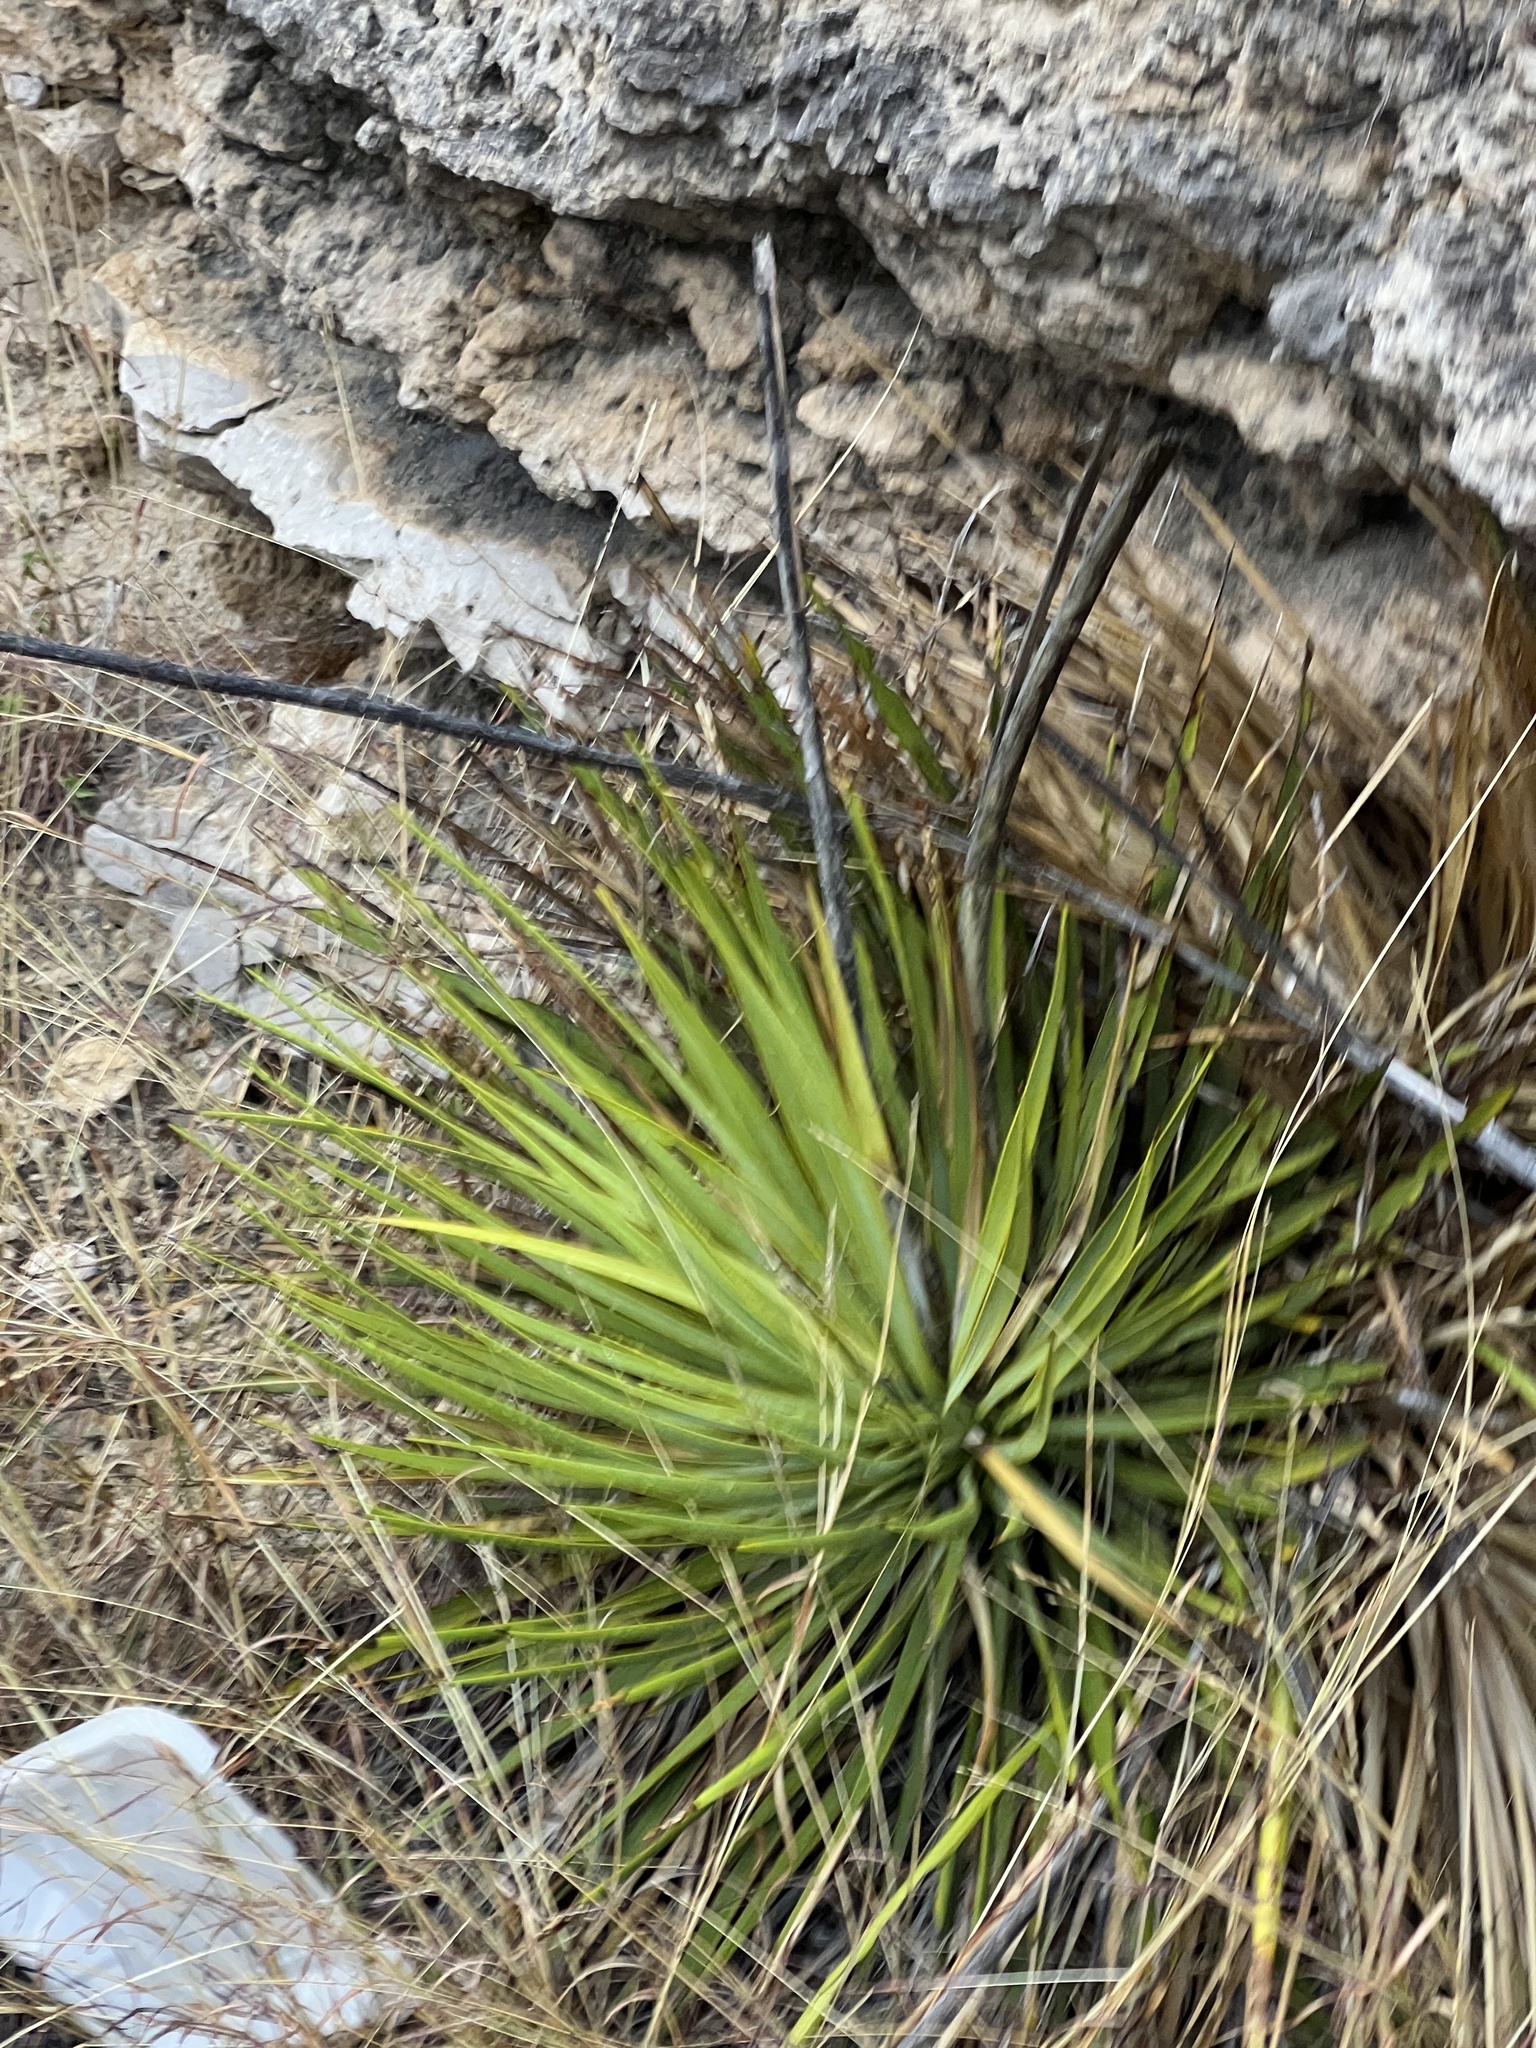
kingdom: Plantae
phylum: Tracheophyta
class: Liliopsida
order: Asparagales
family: Asparagaceae
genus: Yucca
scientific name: Yucca reverchonii
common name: San angelo yucca
